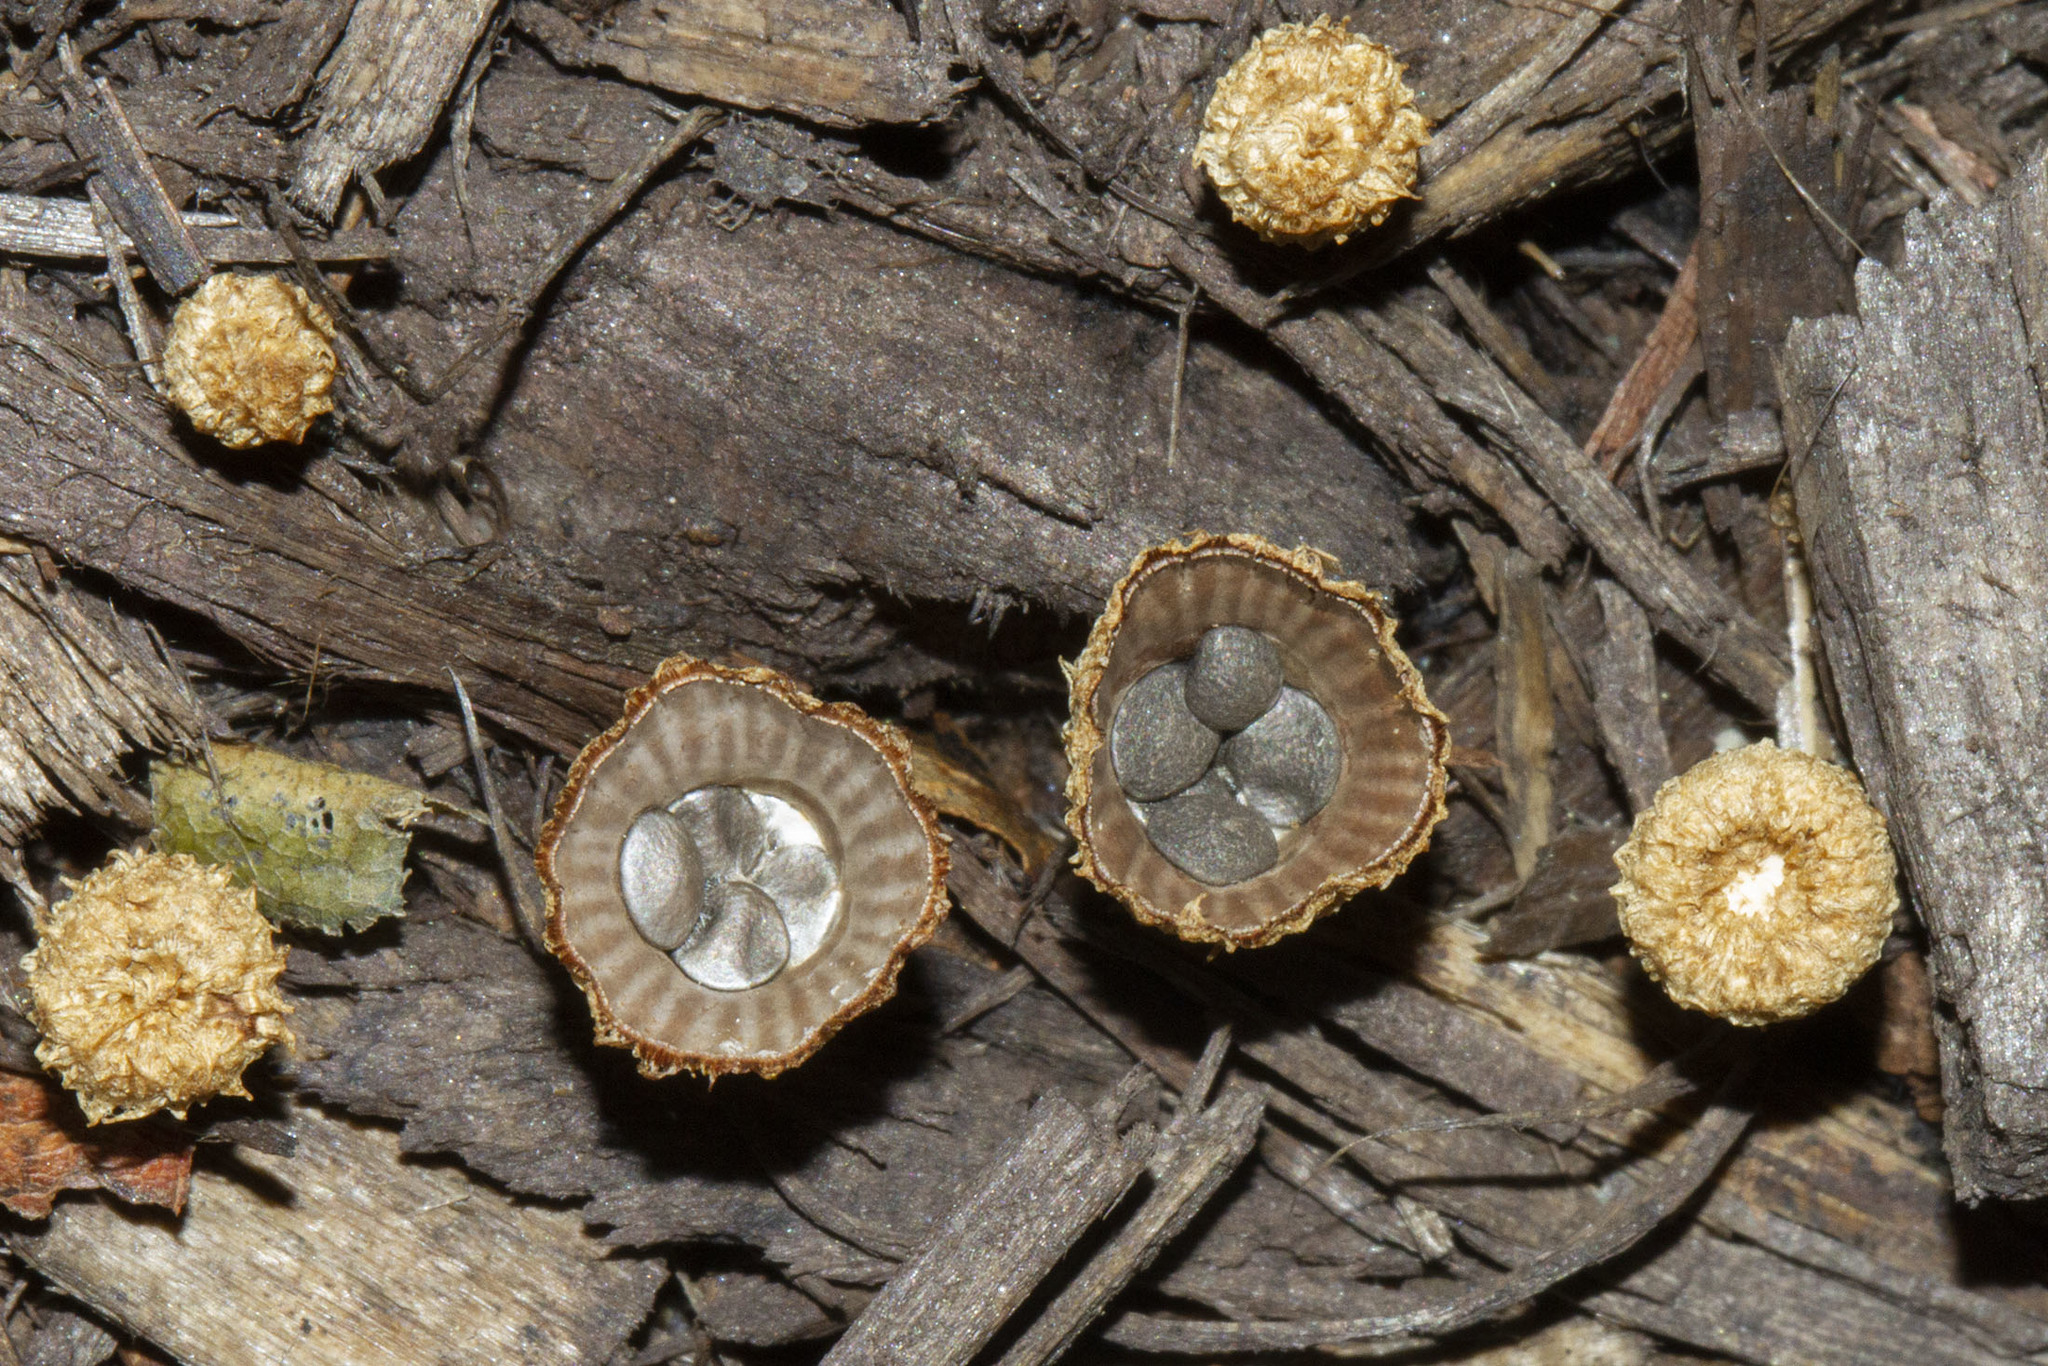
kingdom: Fungi
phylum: Basidiomycota
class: Agaricomycetes
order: Agaricales
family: Agaricaceae
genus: Cyathus
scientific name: Cyathus striatus
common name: Fluted bird's nest
